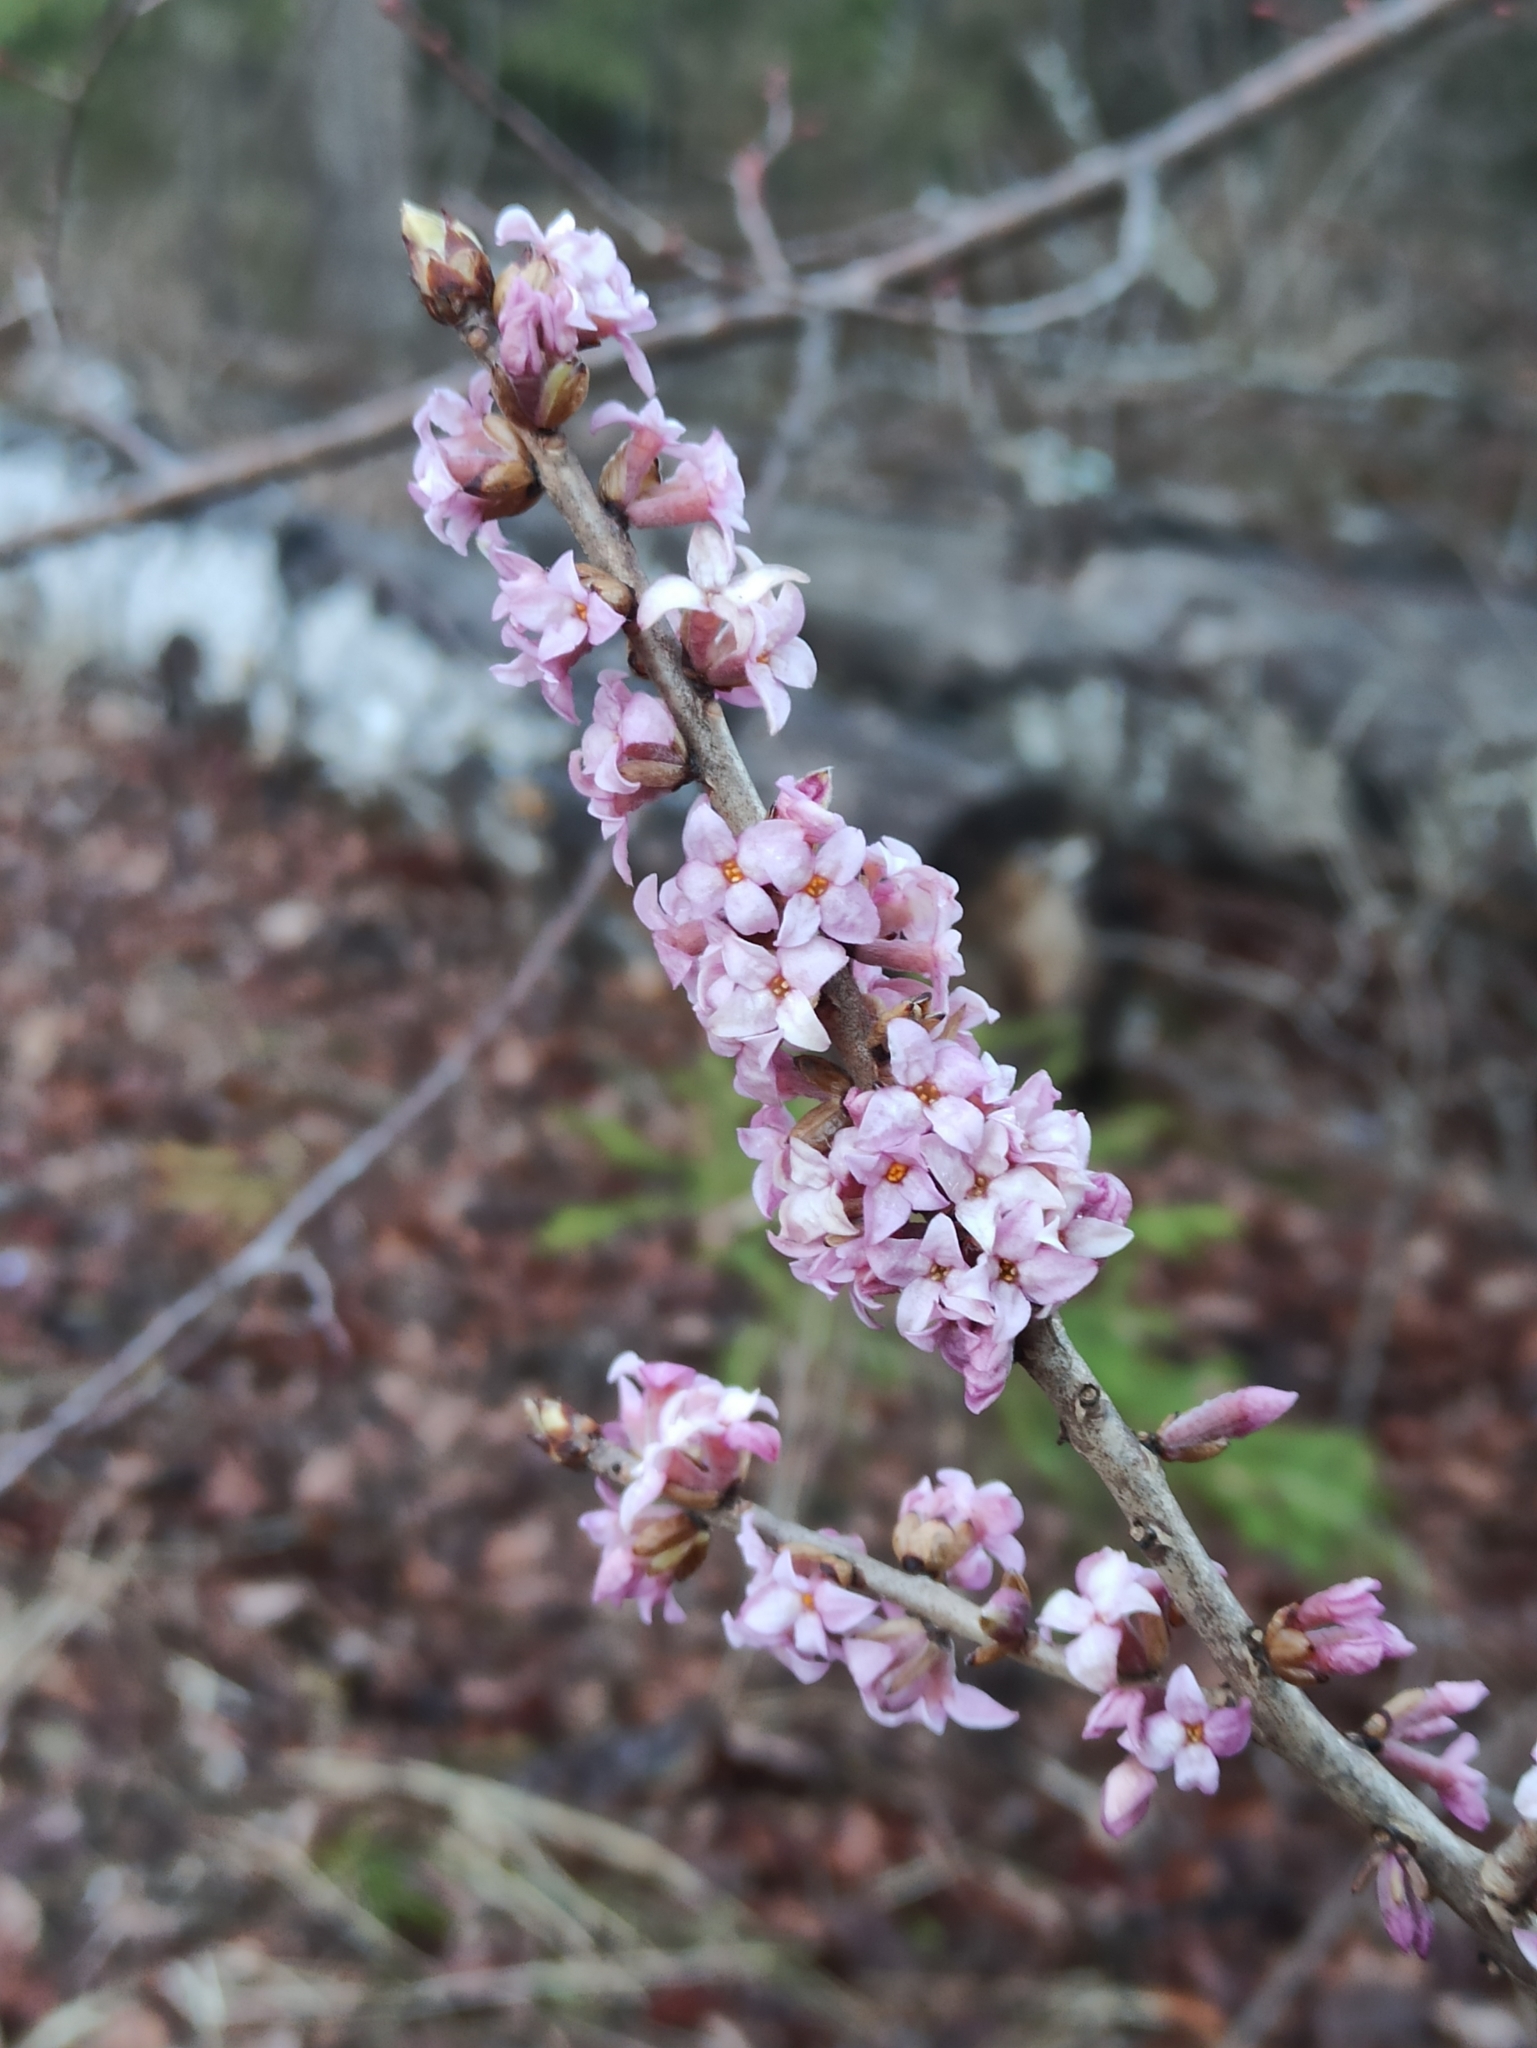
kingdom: Plantae
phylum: Tracheophyta
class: Magnoliopsida
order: Malvales
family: Thymelaeaceae
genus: Daphne
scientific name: Daphne mezereum
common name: Mezereon
